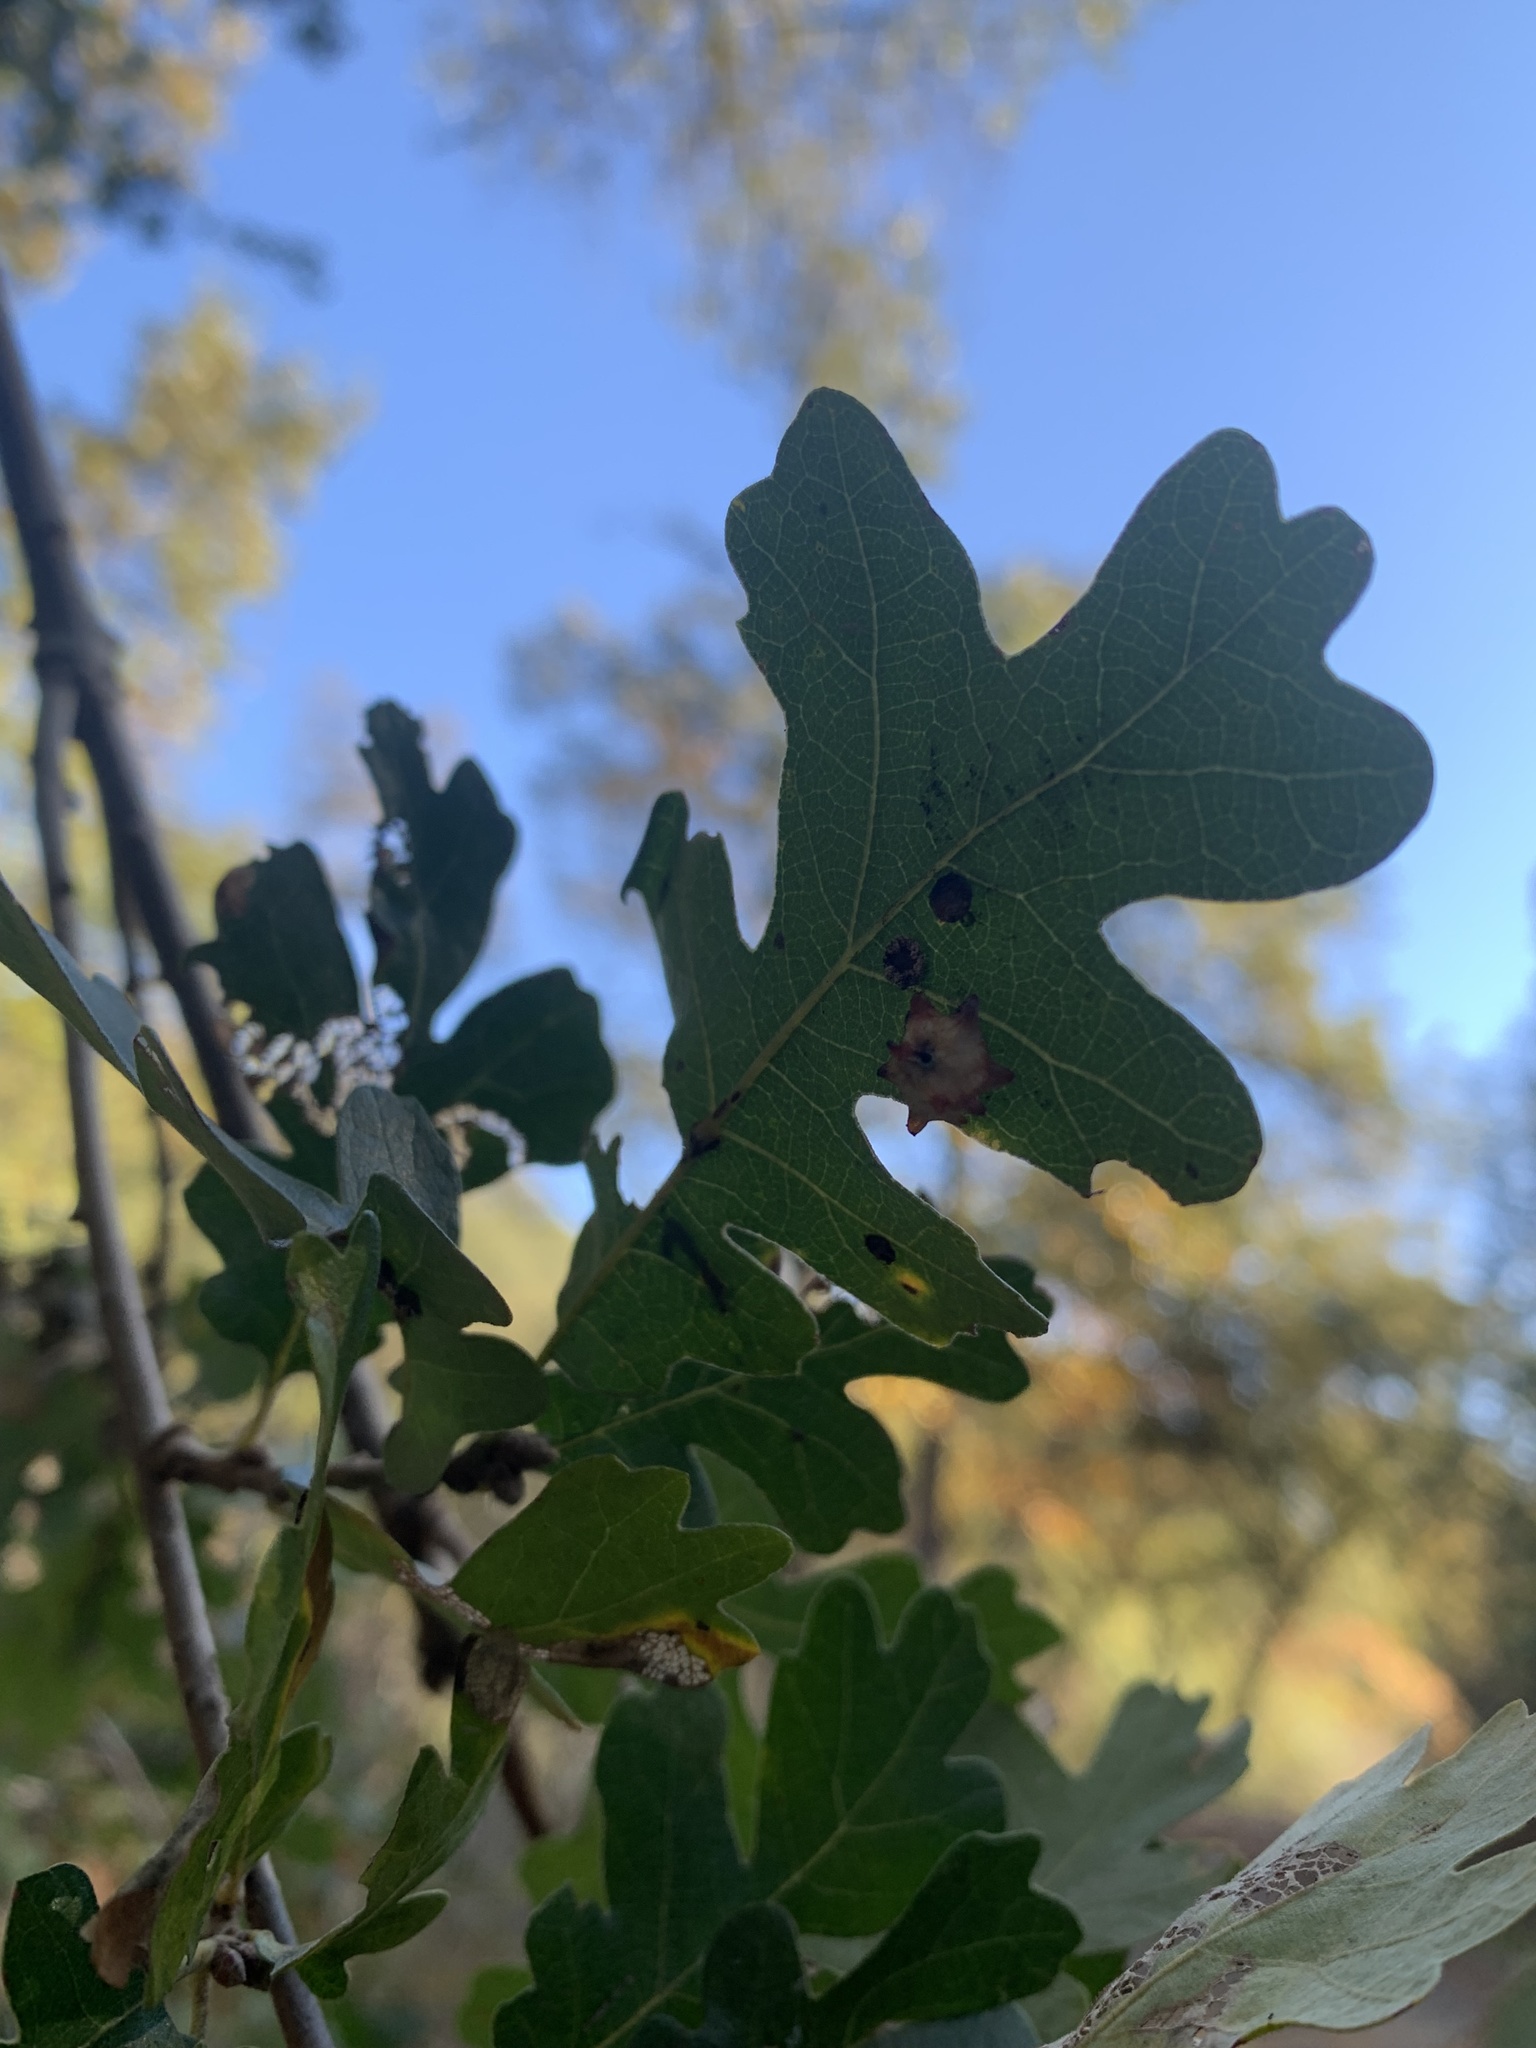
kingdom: Animalia
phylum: Arthropoda
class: Insecta
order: Hymenoptera
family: Cynipidae
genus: Cynips
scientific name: Cynips douglasi
